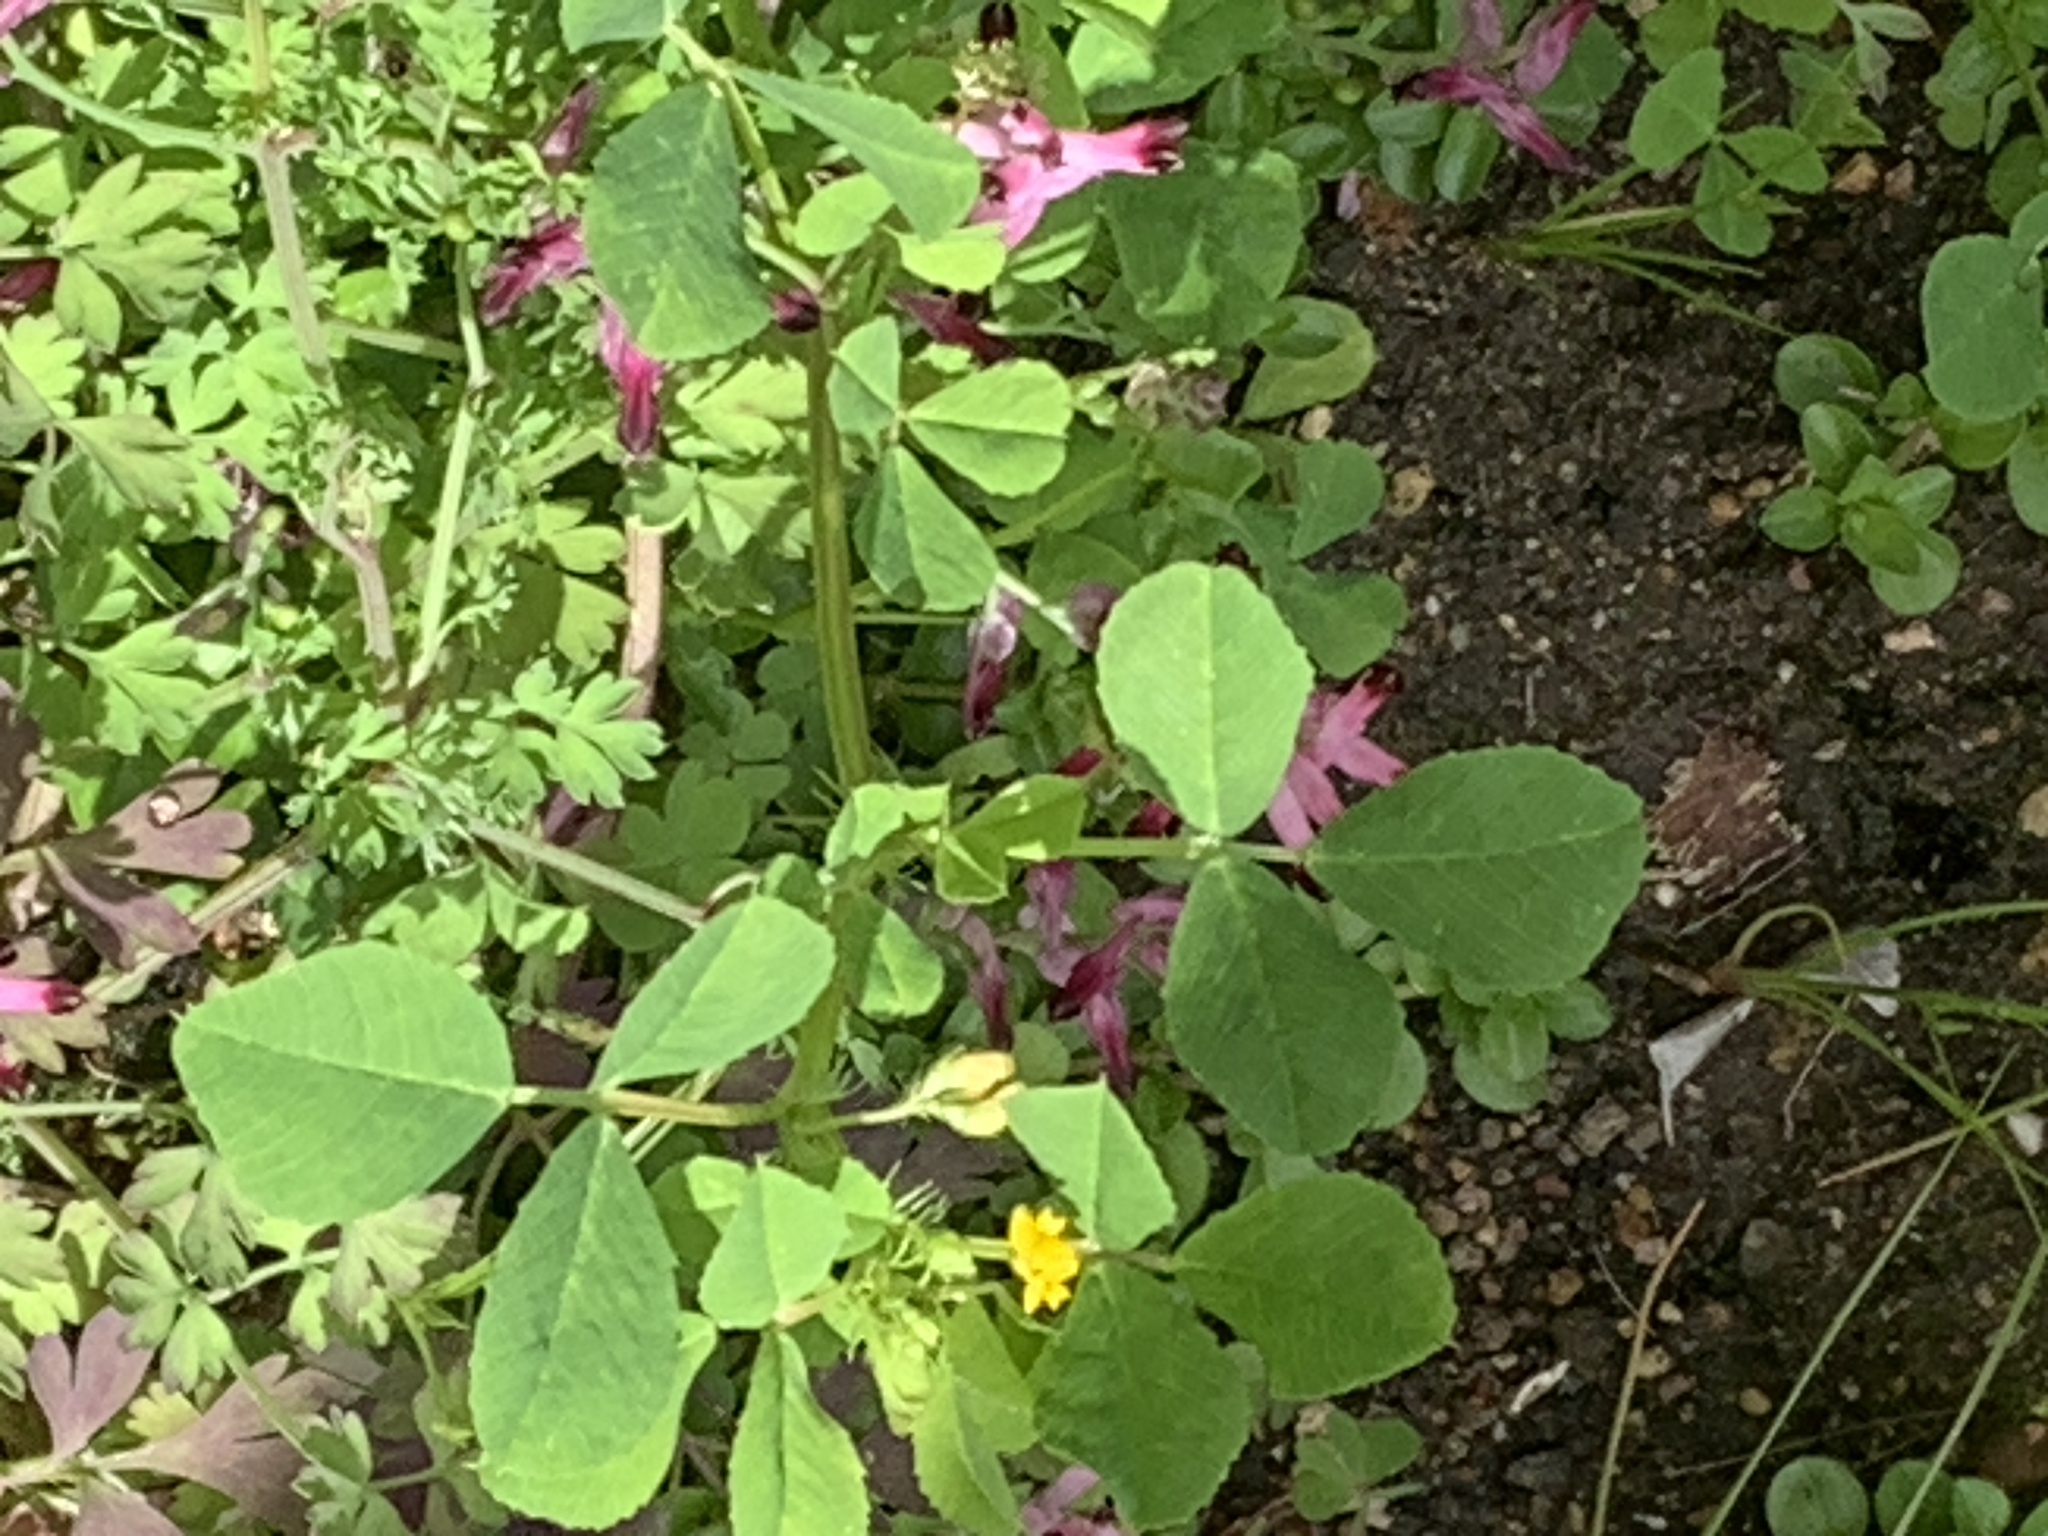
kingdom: Plantae
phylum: Tracheophyta
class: Magnoliopsida
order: Fabales
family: Fabaceae
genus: Medicago
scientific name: Medicago polymorpha
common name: Burclover
